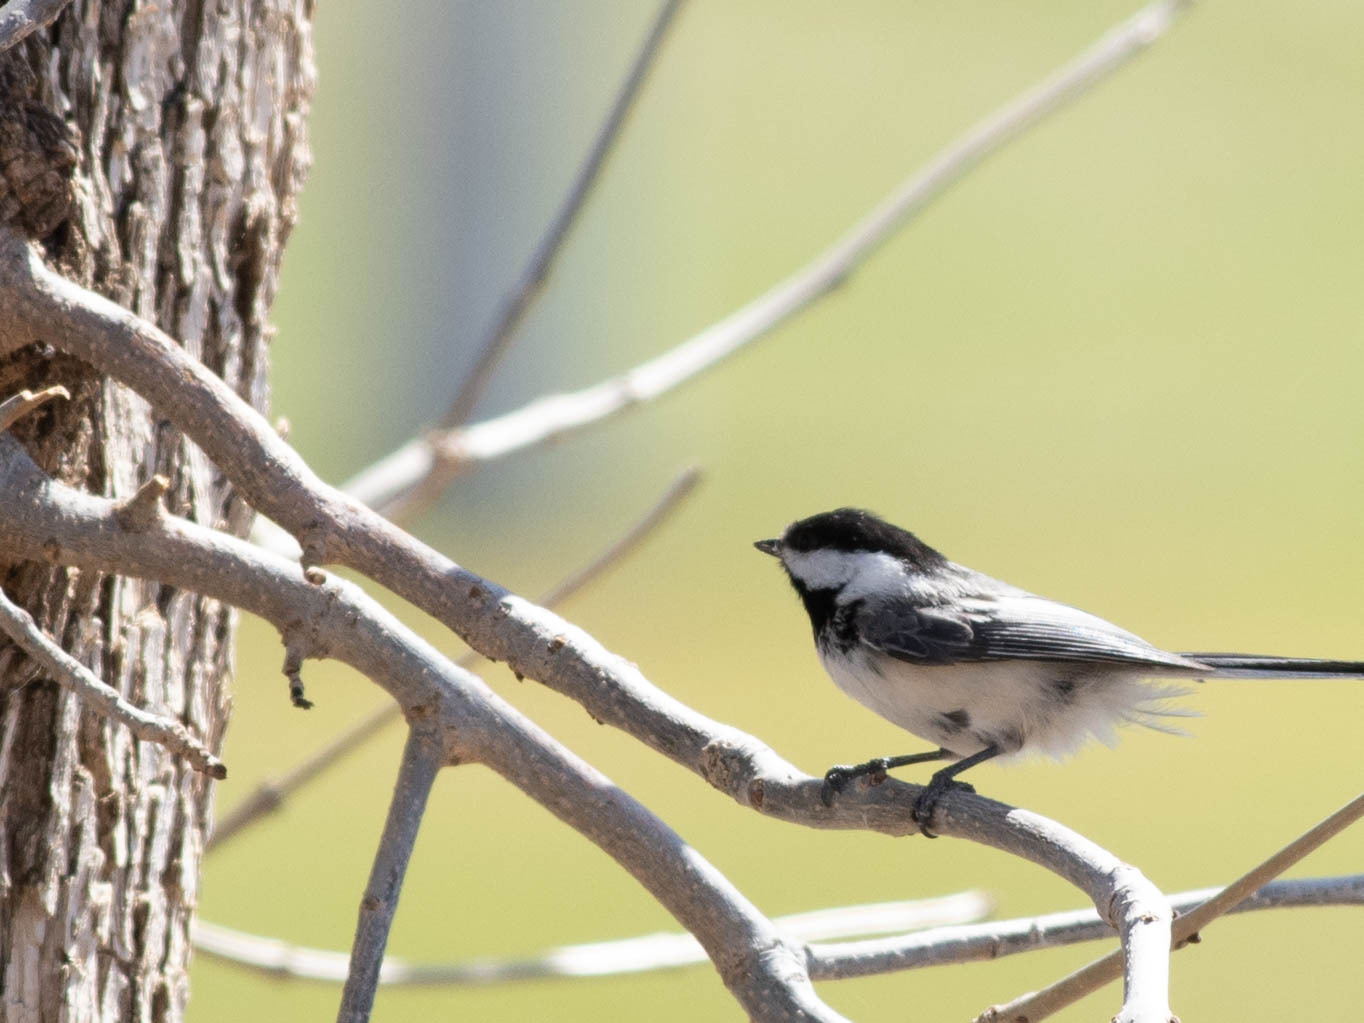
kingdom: Animalia
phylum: Chordata
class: Aves
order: Passeriformes
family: Paridae
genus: Poecile
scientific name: Poecile atricapillus
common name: Black-capped chickadee
